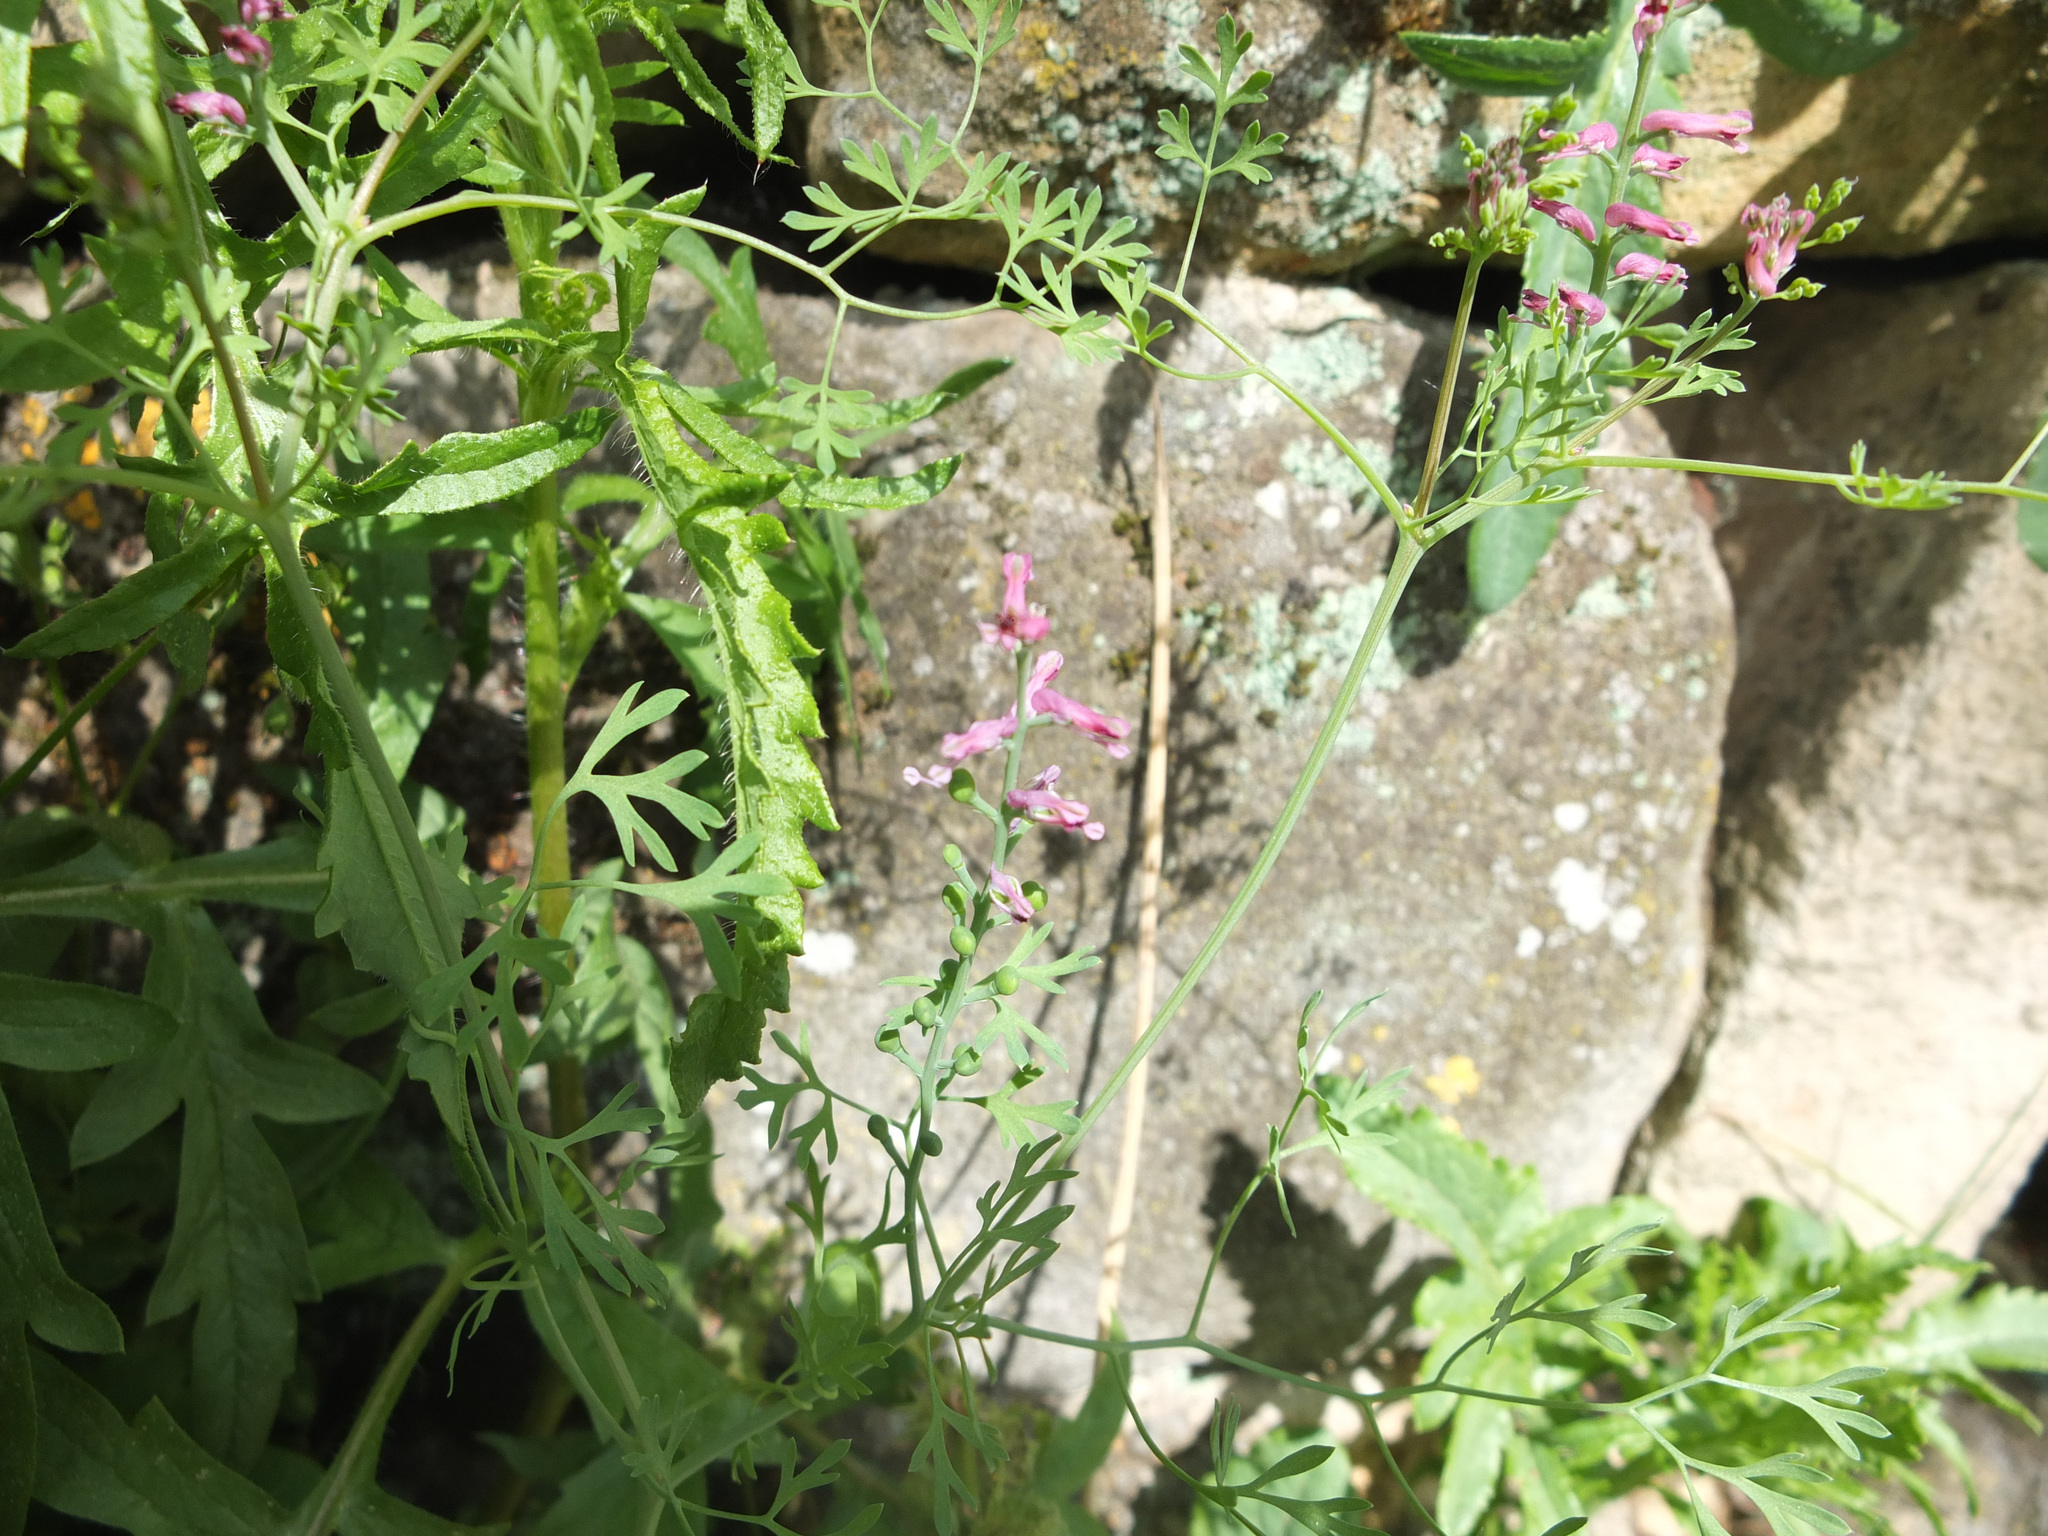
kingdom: Plantae
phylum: Tracheophyta
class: Magnoliopsida
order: Ranunculales
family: Papaveraceae
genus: Fumaria
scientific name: Fumaria officinalis
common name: Common fumitory
